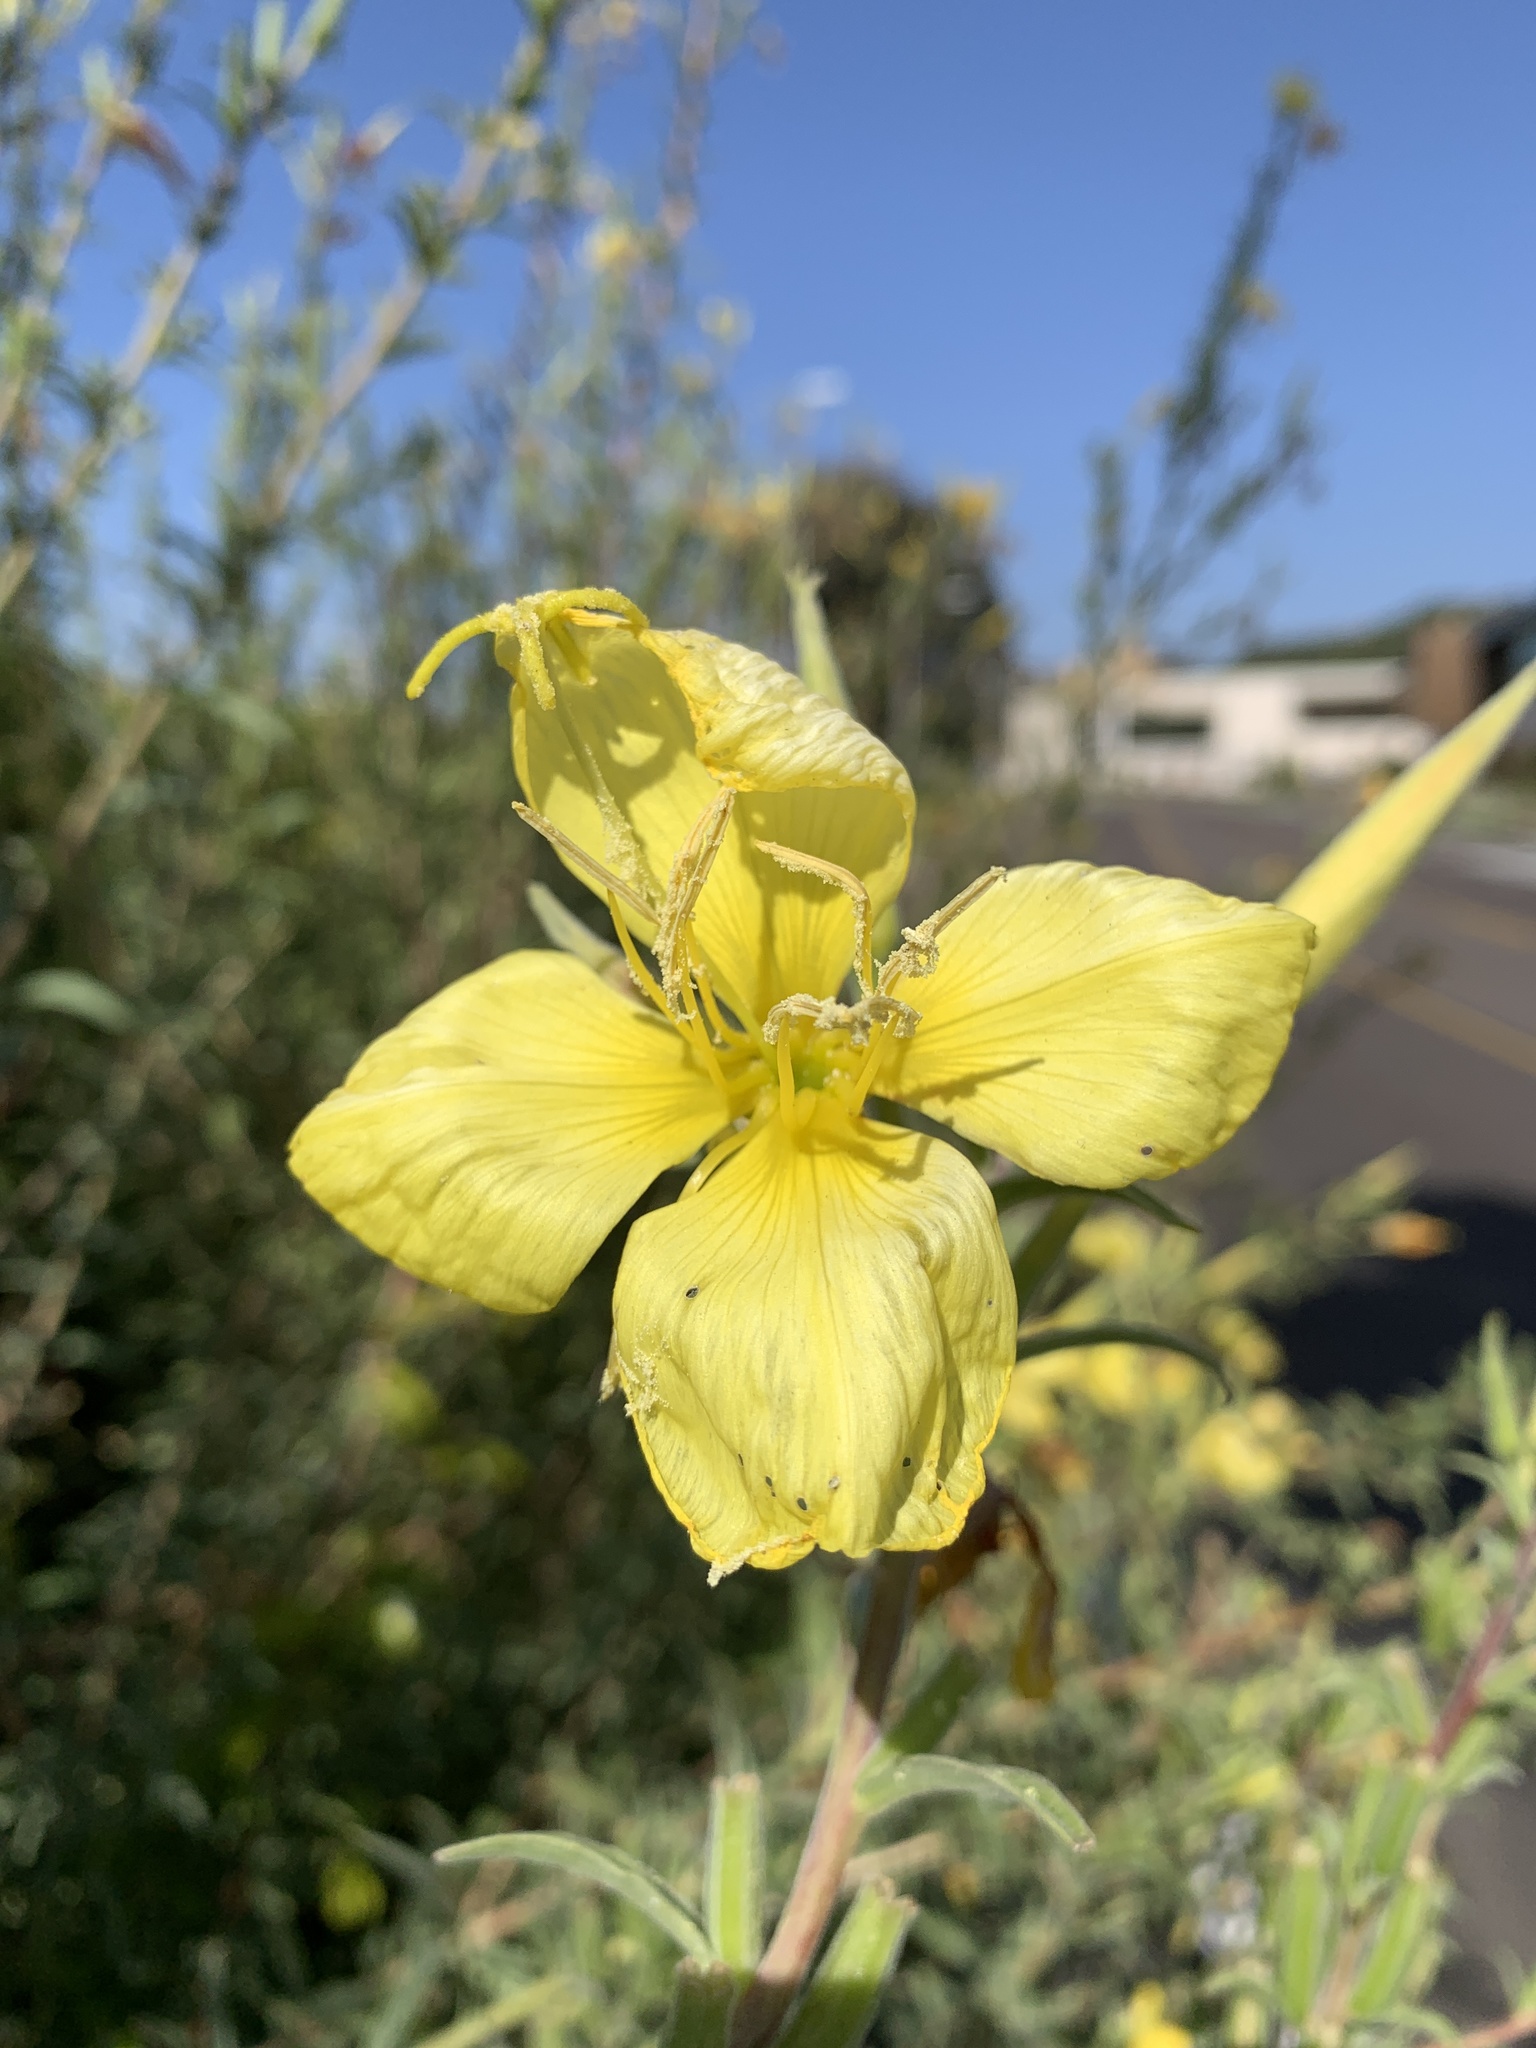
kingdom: Plantae
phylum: Tracheophyta
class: Magnoliopsida
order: Myrtales
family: Onagraceae
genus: Oenothera
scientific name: Oenothera elata
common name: Hooker's evening-primrose
